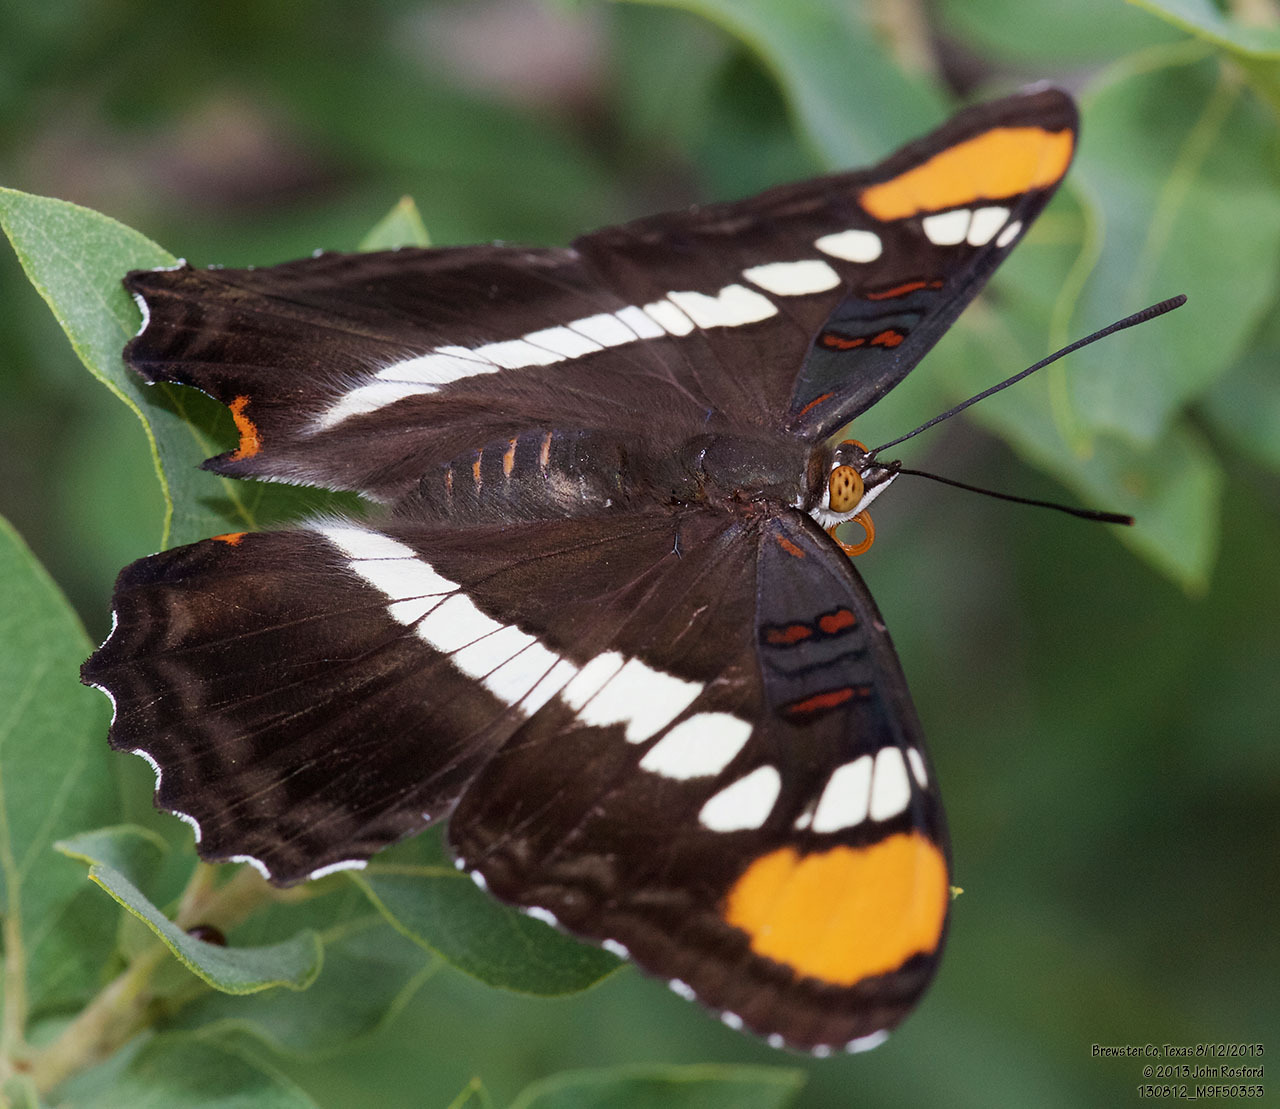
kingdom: Animalia
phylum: Arthropoda
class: Insecta
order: Lepidoptera
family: Nymphalidae
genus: Limenitis
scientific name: Limenitis bredowii
